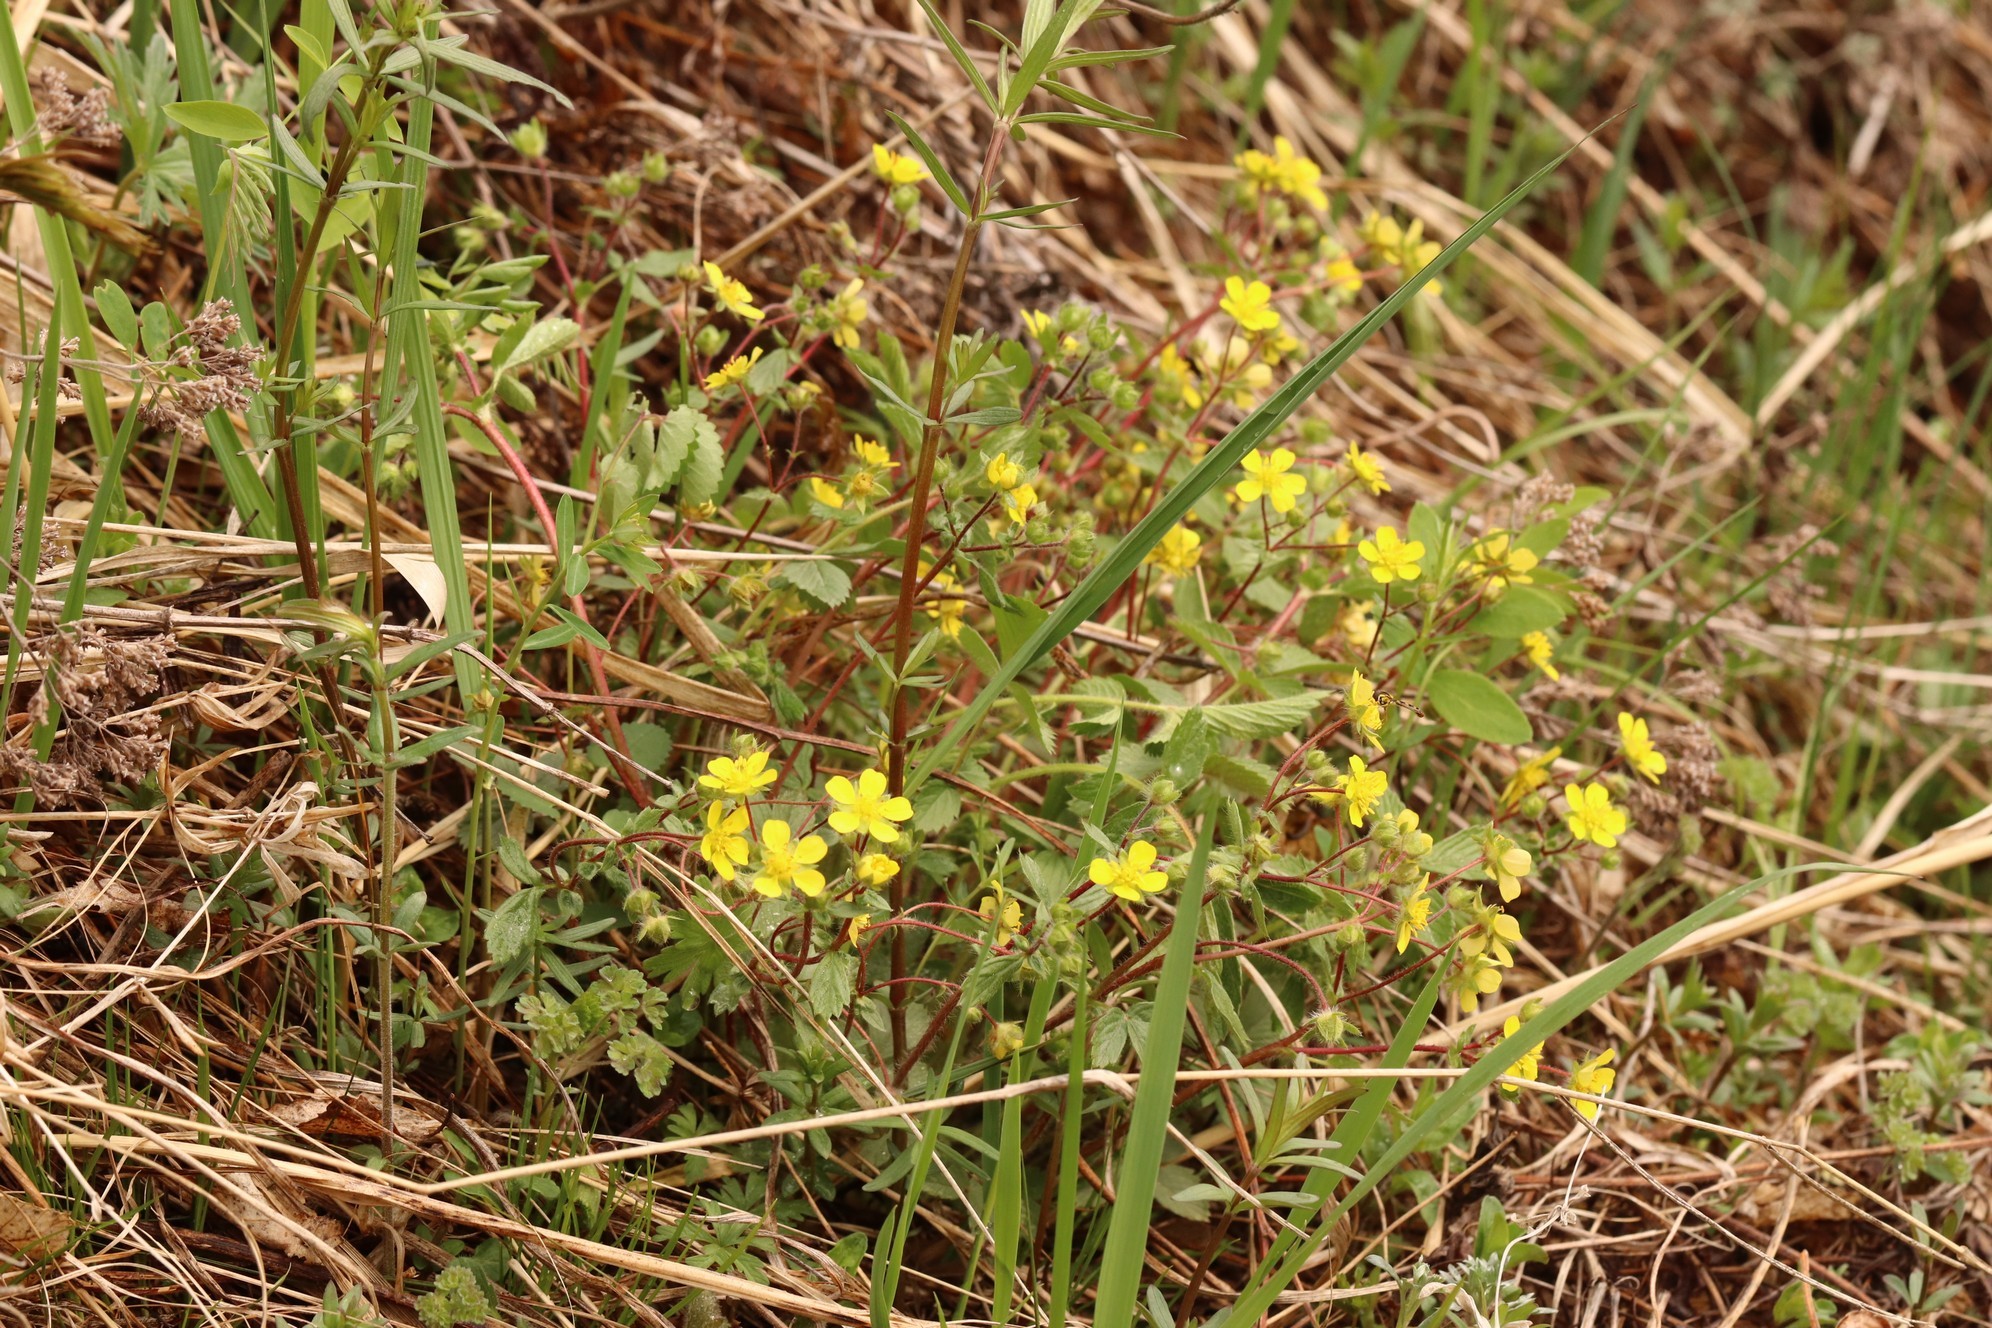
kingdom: Plantae
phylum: Tracheophyta
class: Magnoliopsida
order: Rosales
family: Rosaceae
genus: Potentilla
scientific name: Potentilla fragarioides
